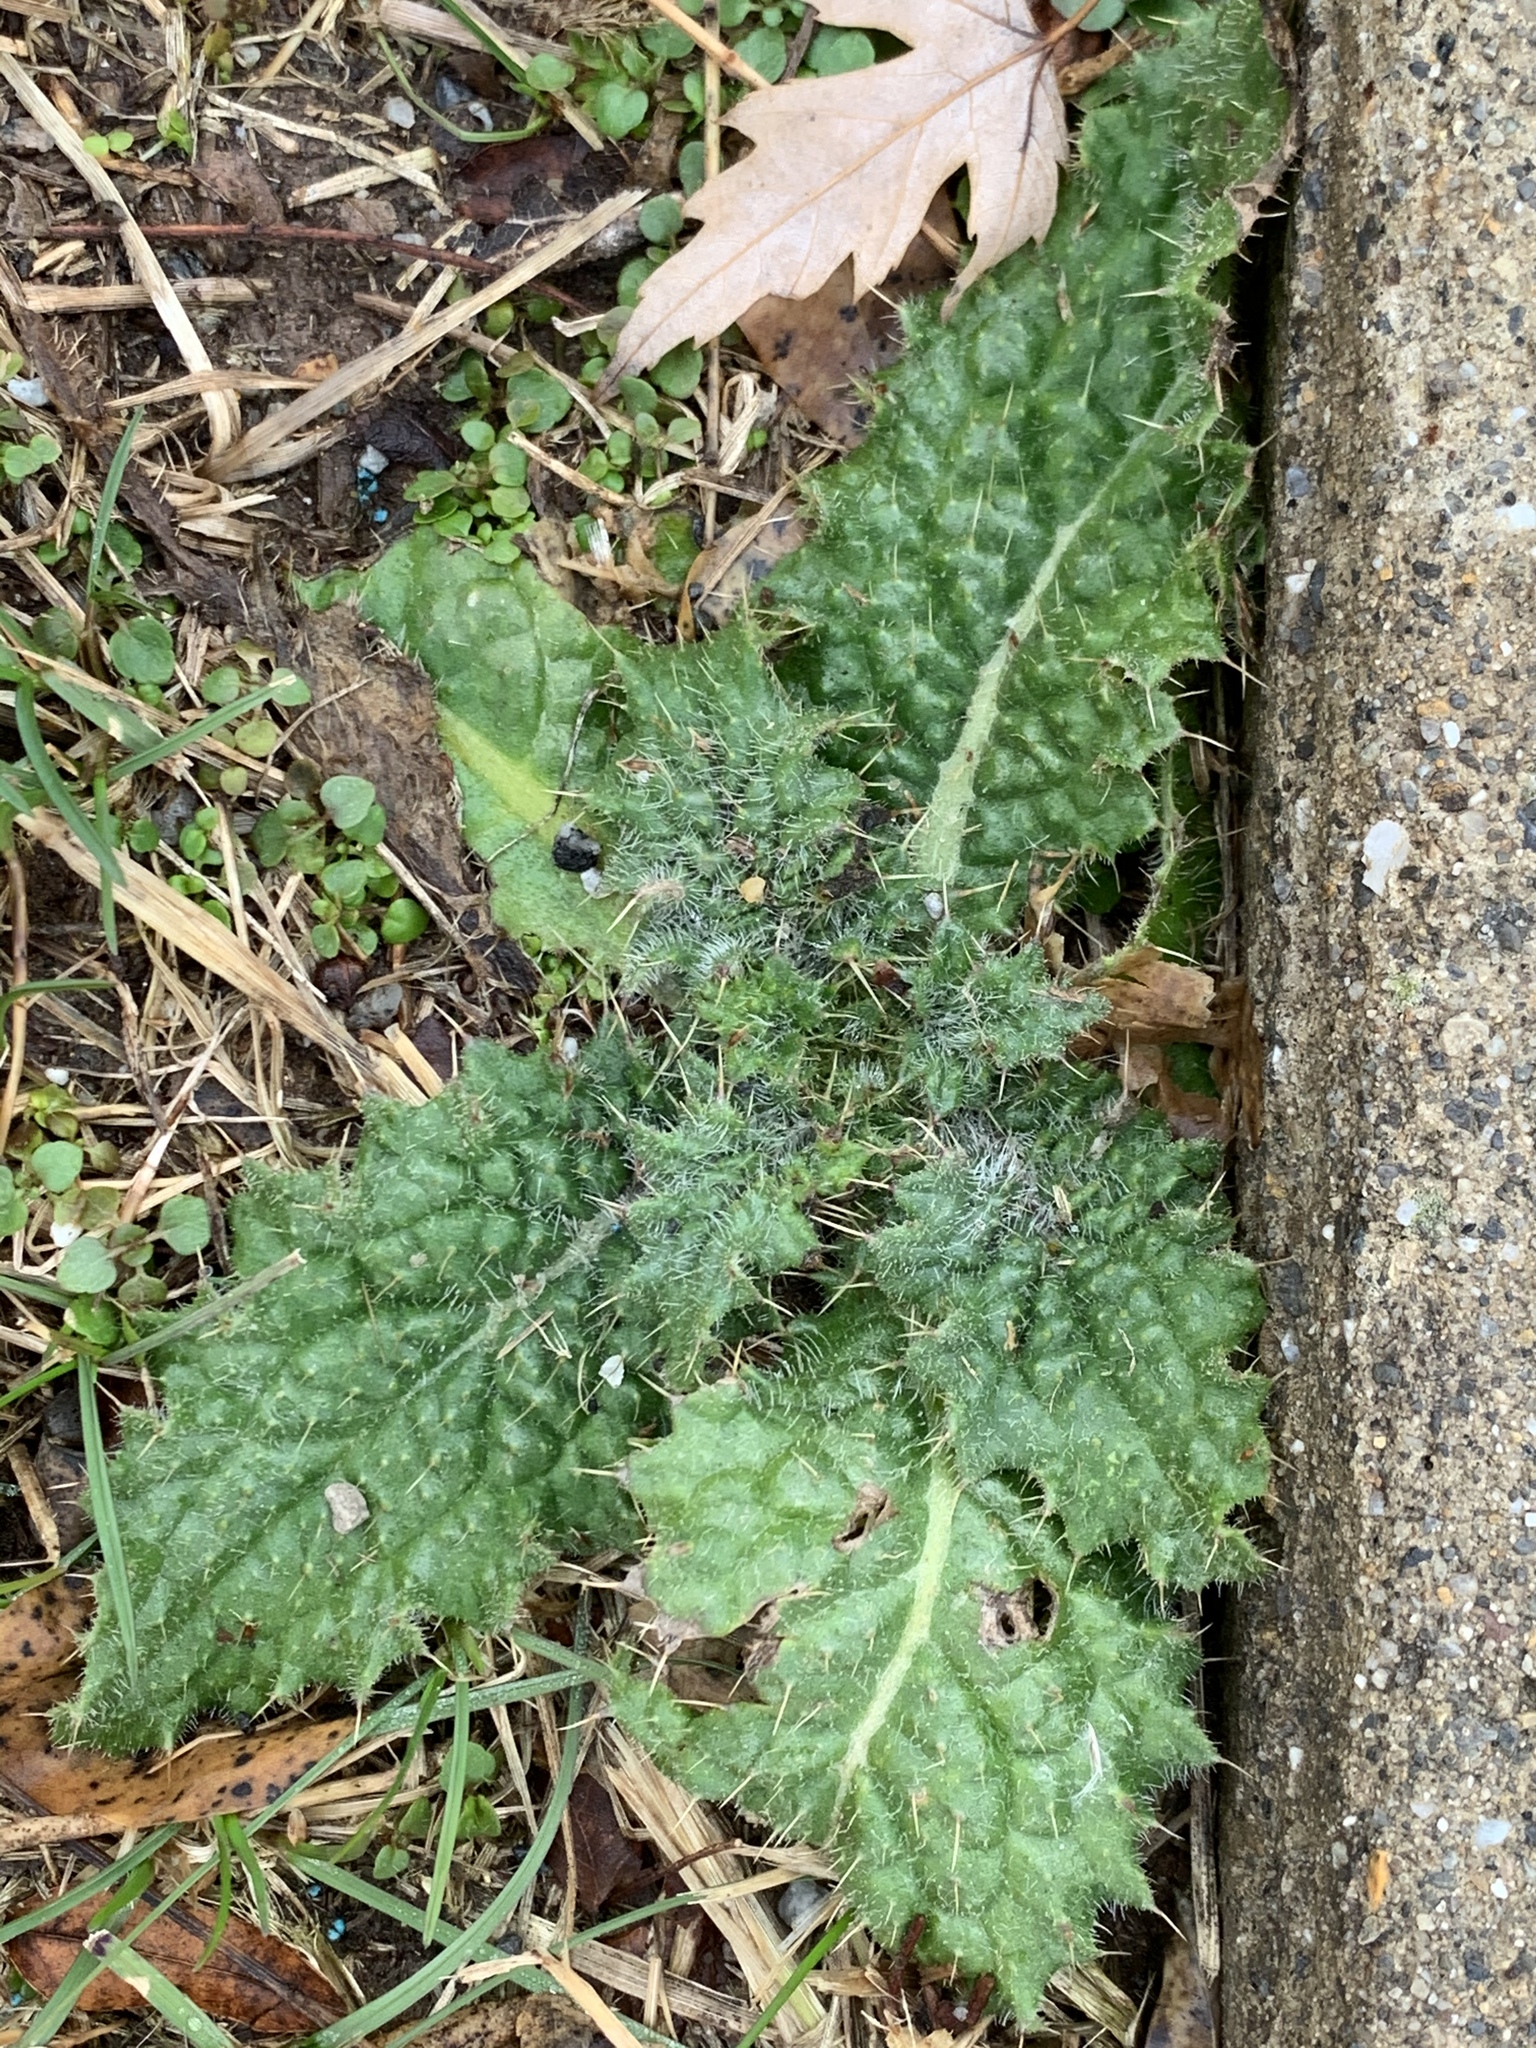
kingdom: Plantae
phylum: Tracheophyta
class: Magnoliopsida
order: Asterales
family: Asteraceae
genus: Cirsium
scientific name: Cirsium vulgare
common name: Bull thistle
